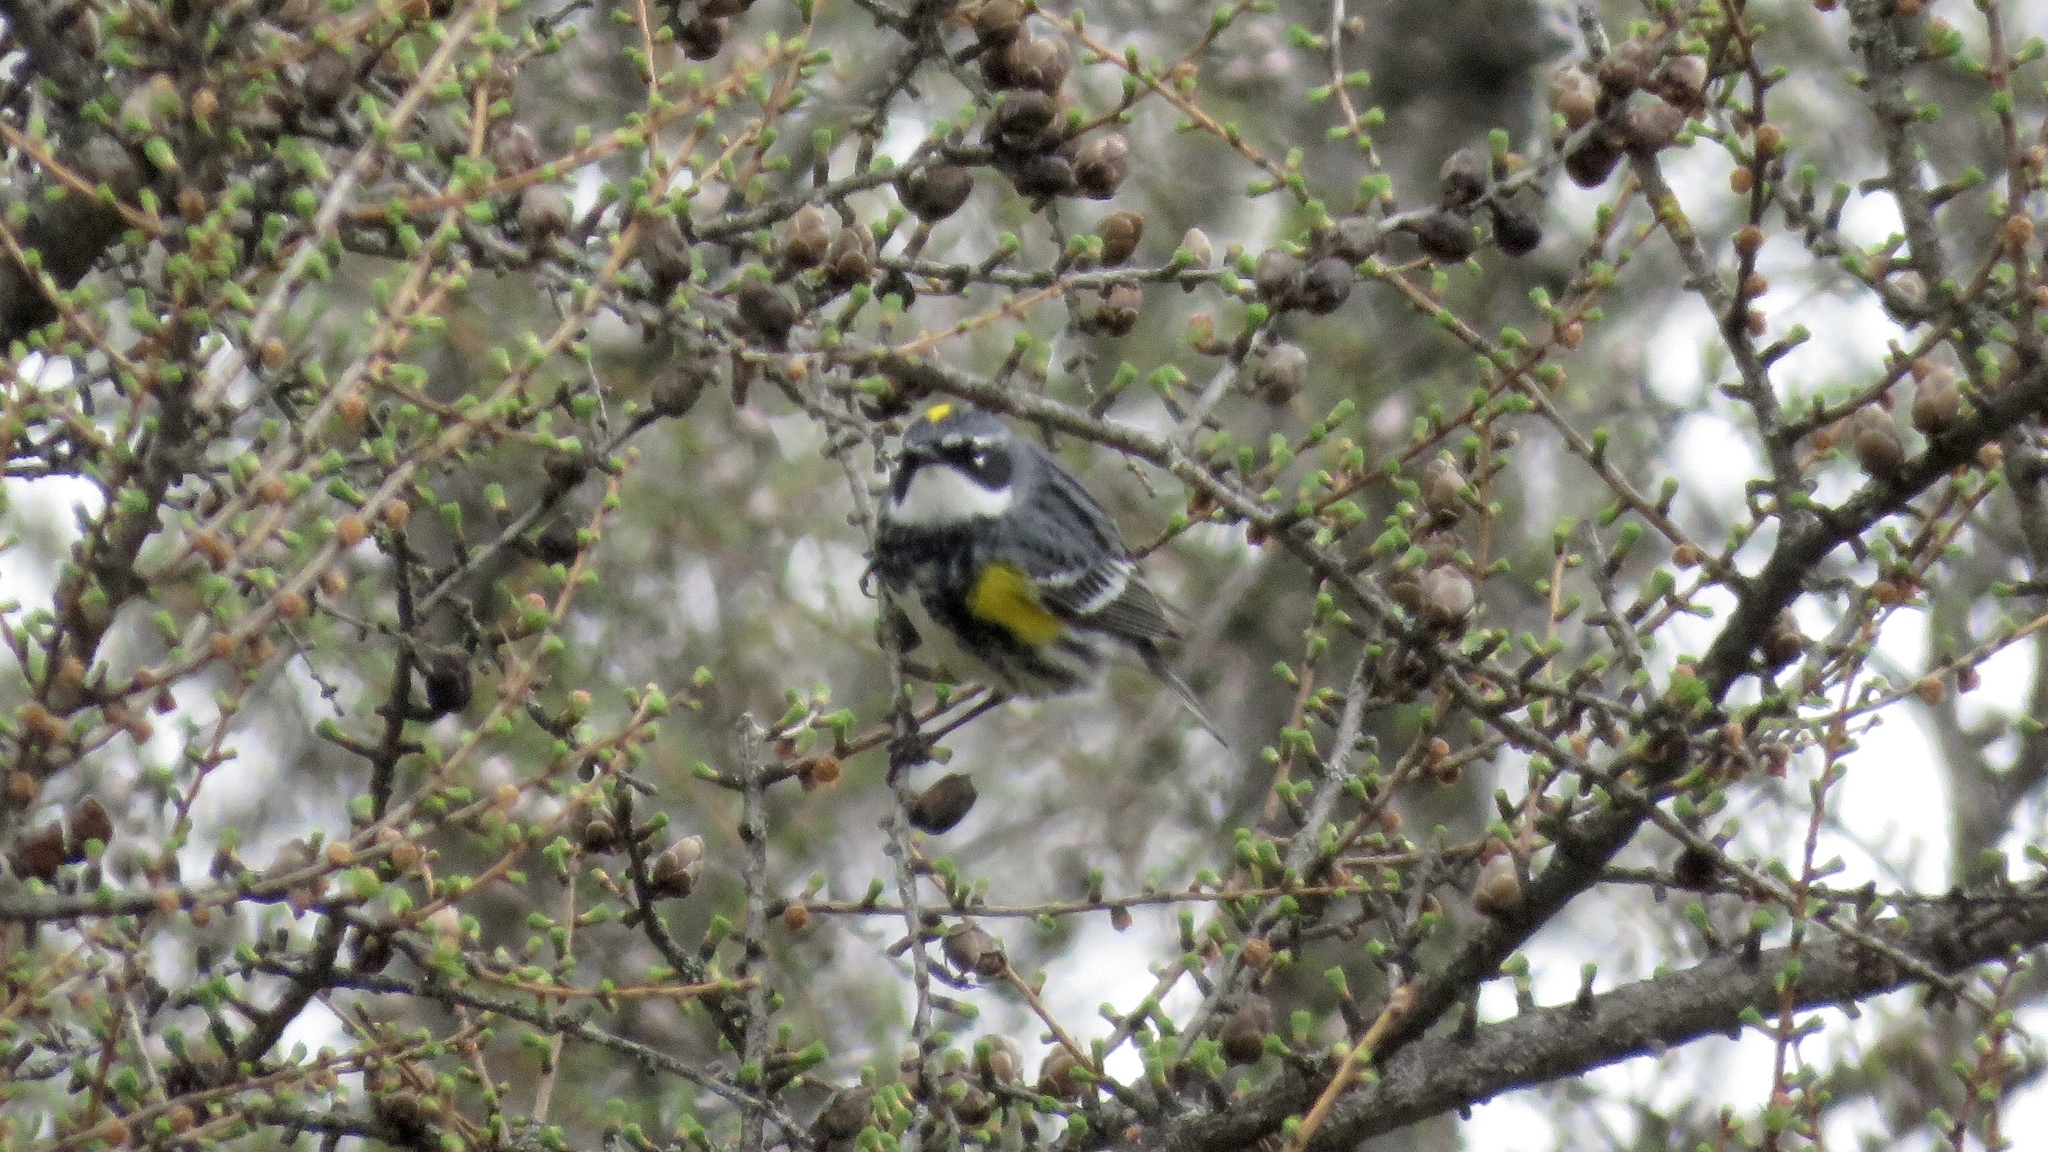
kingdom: Animalia
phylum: Chordata
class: Aves
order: Passeriformes
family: Parulidae
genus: Setophaga
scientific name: Setophaga coronata
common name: Myrtle warbler
